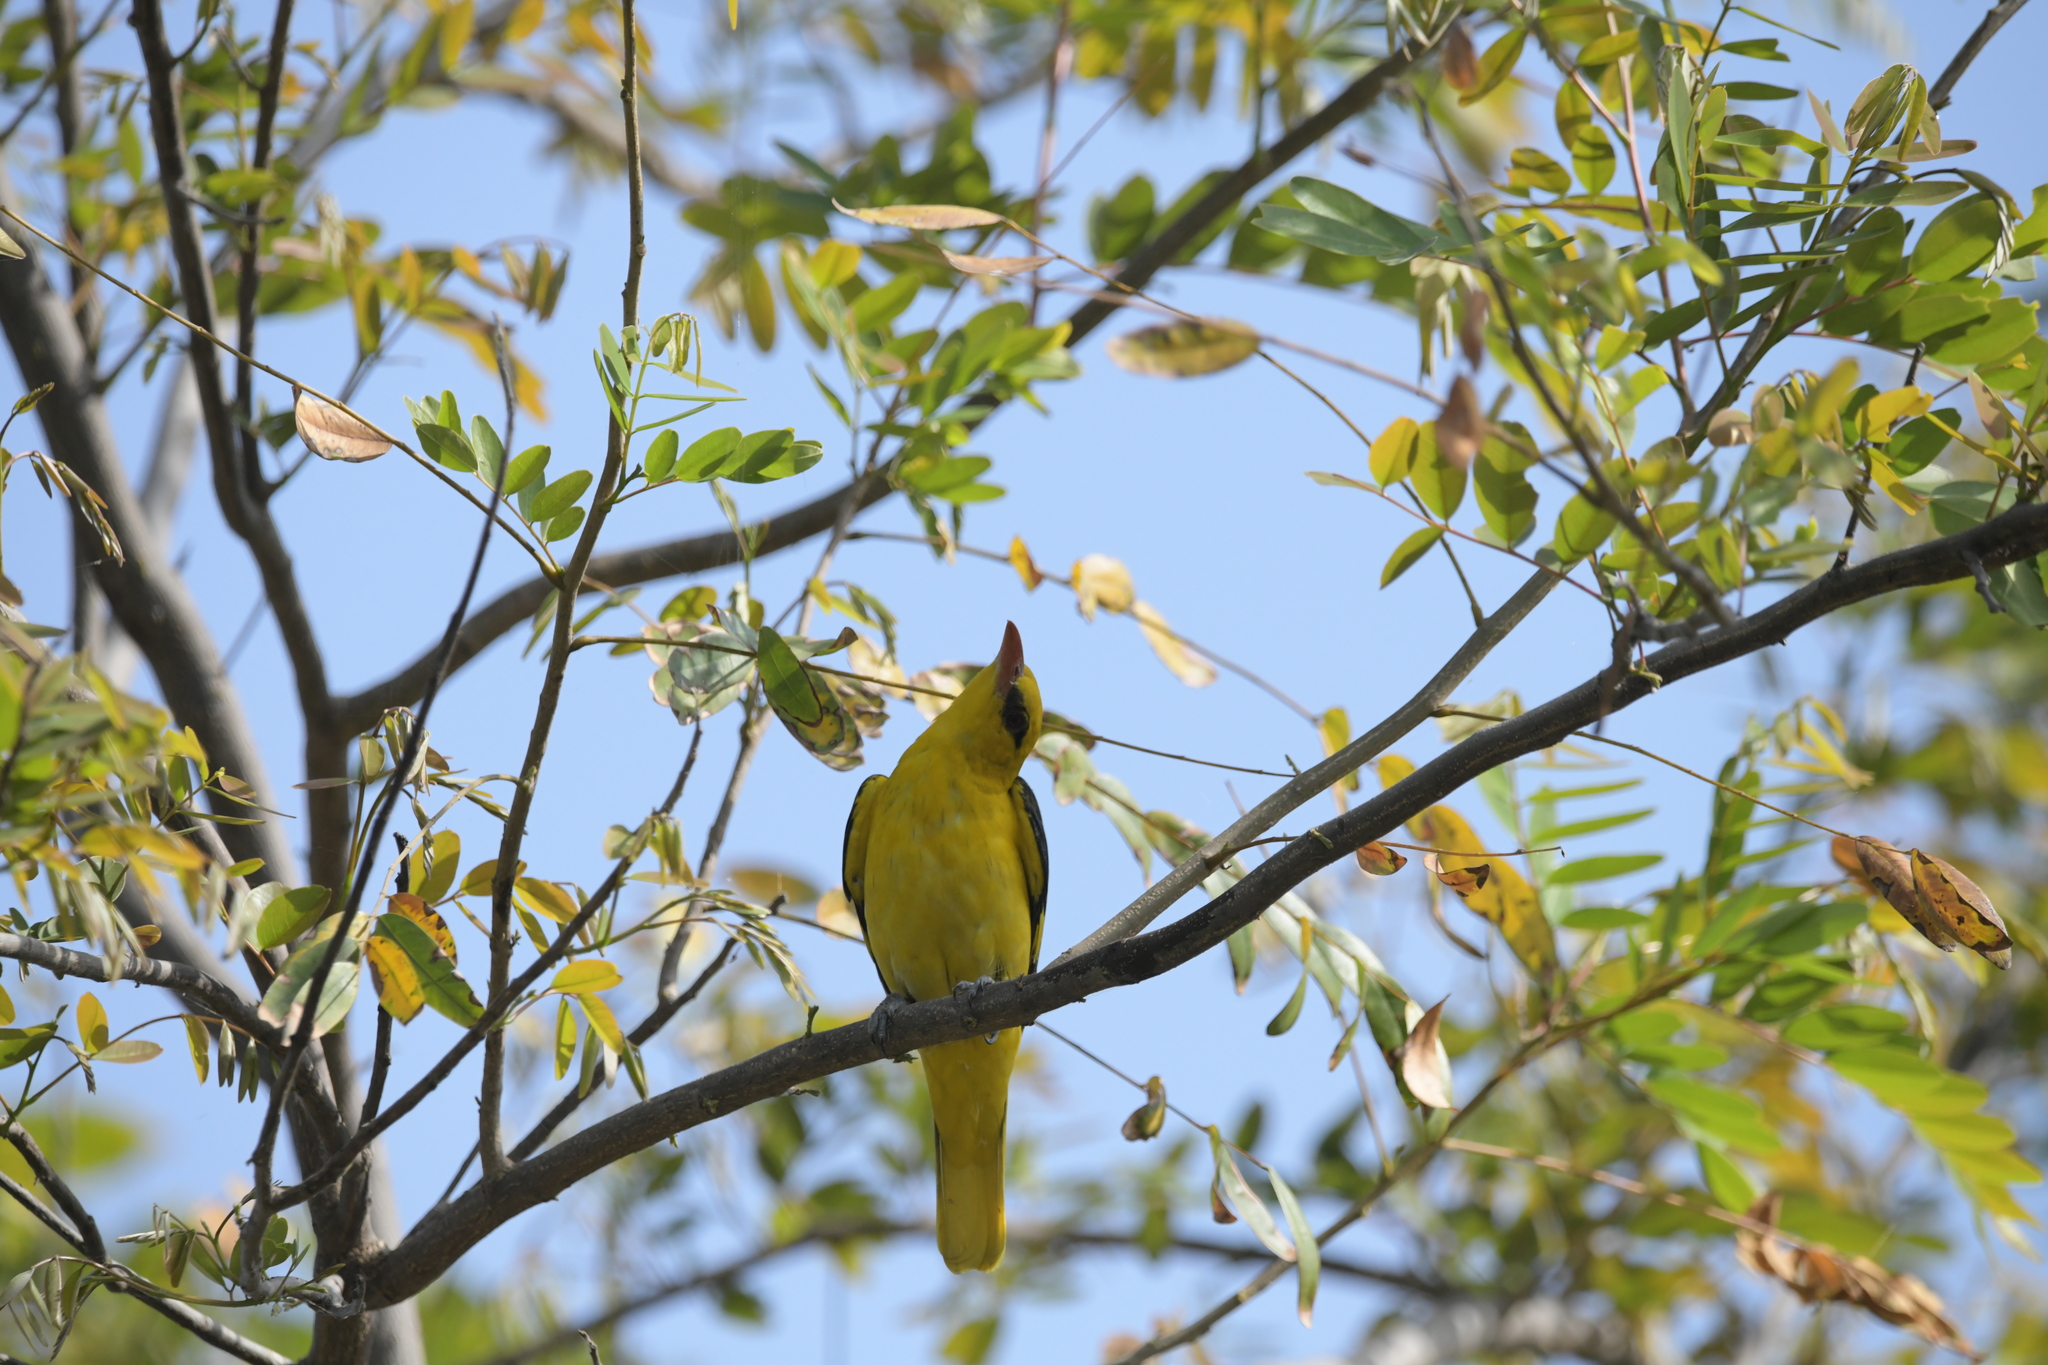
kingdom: Animalia
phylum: Chordata
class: Aves
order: Passeriformes
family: Oriolidae
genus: Oriolus
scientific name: Oriolus kundoo
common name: Indian golden oriole
